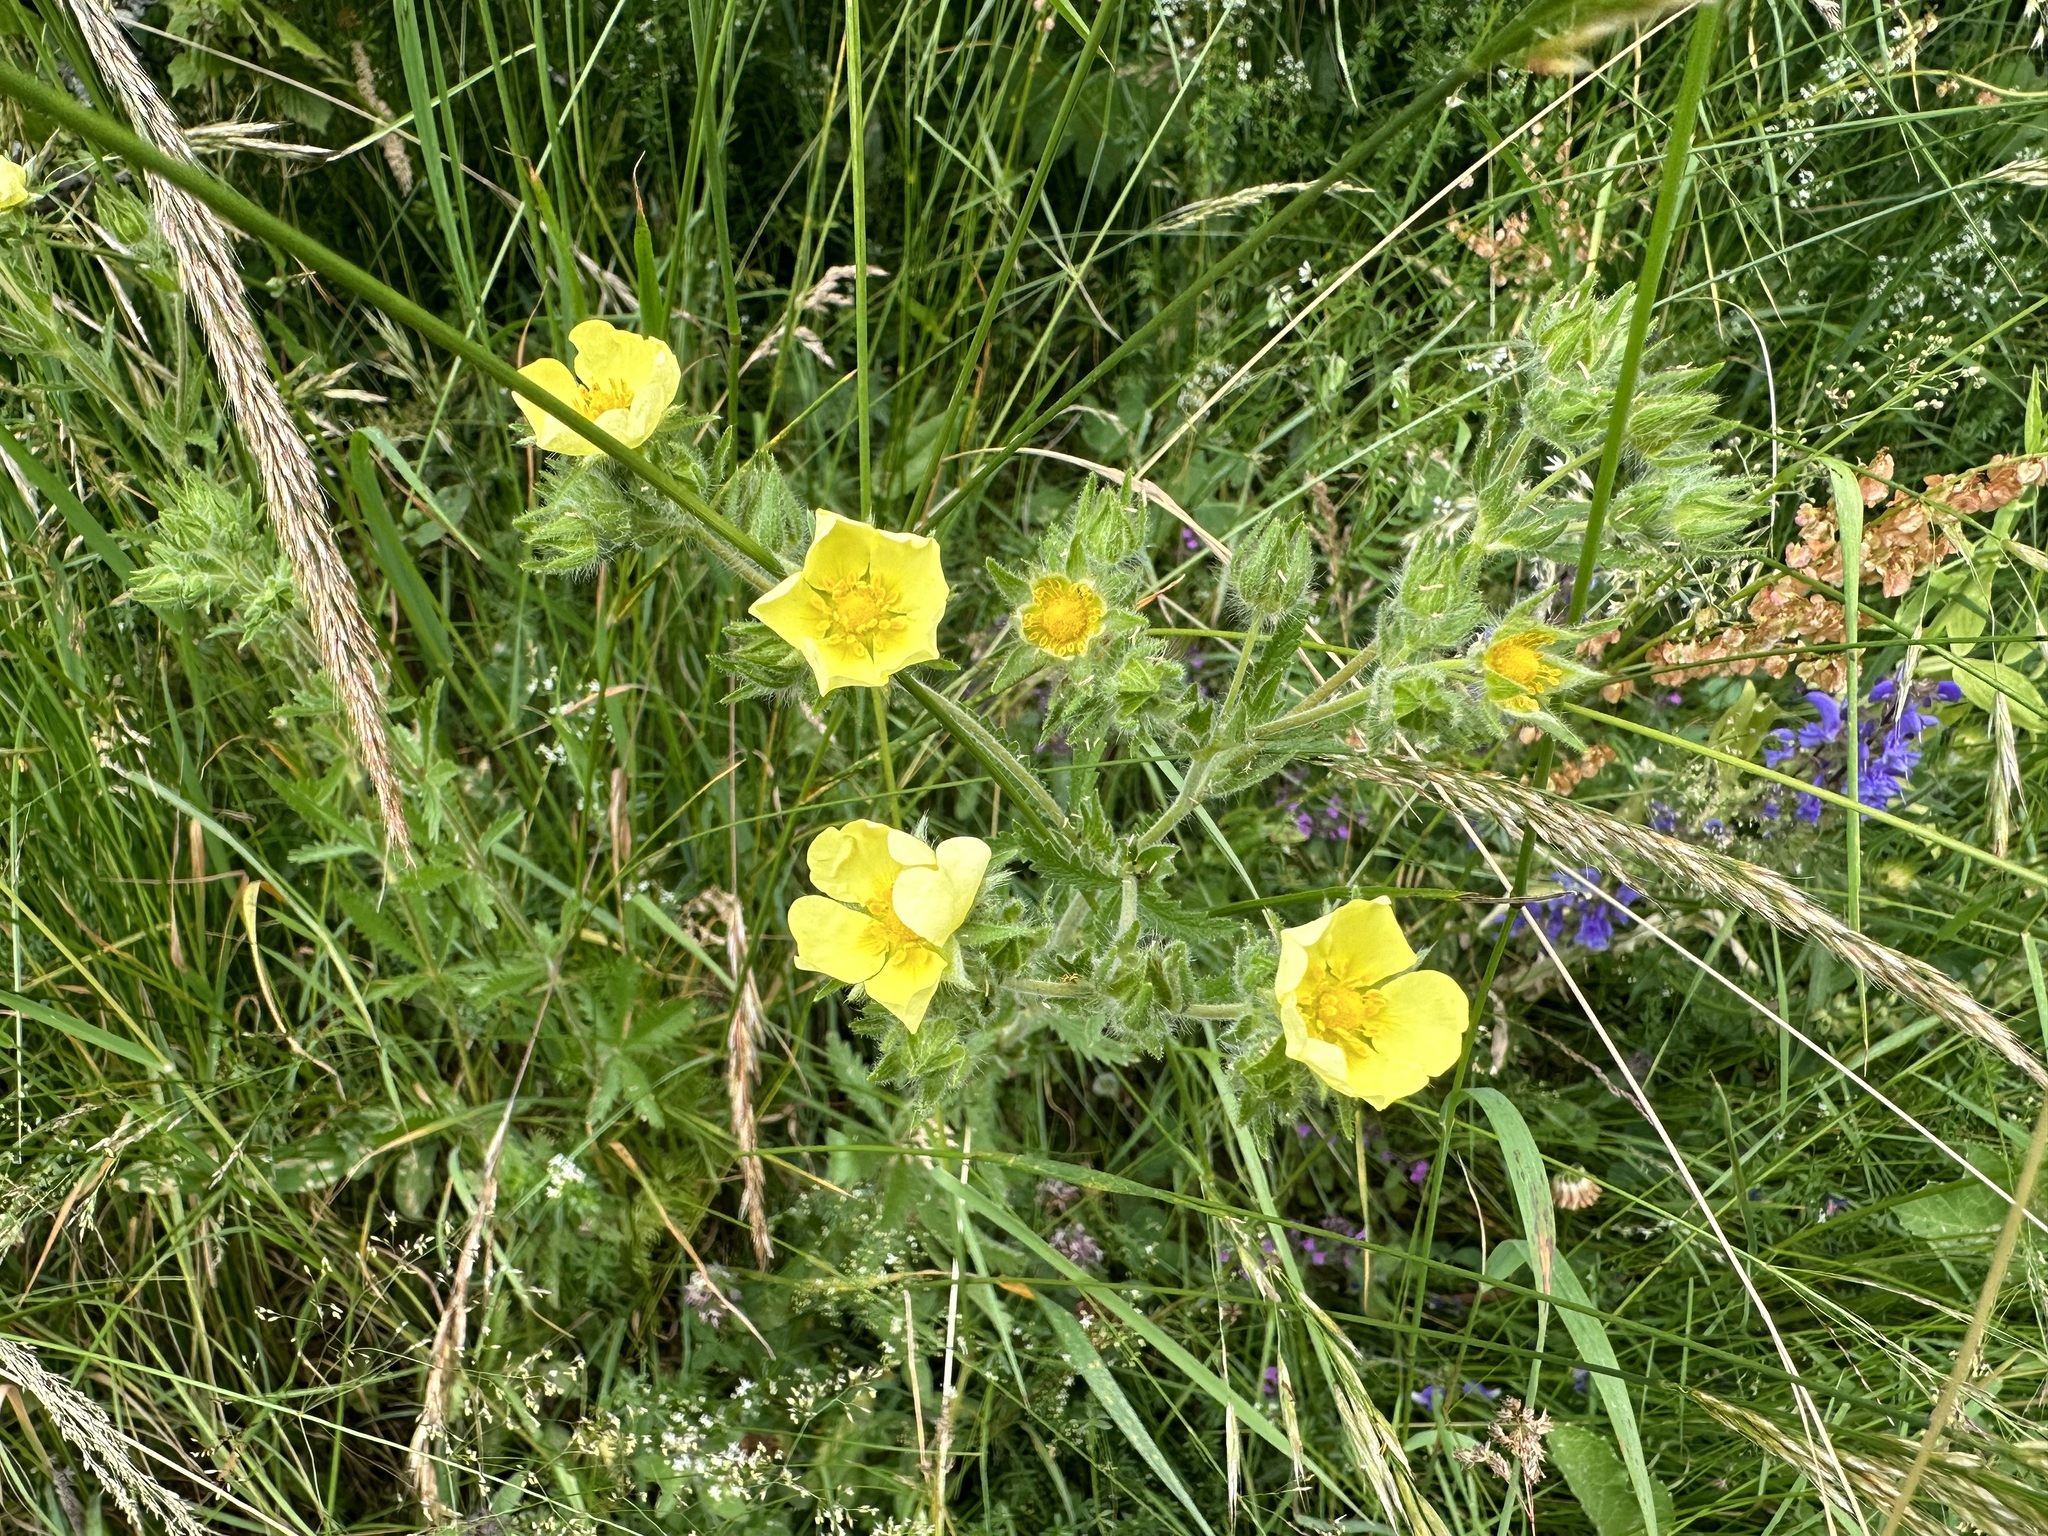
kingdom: Plantae
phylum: Tracheophyta
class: Magnoliopsida
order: Rosales
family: Rosaceae
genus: Potentilla
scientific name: Potentilla recta
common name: Sulphur cinquefoil
